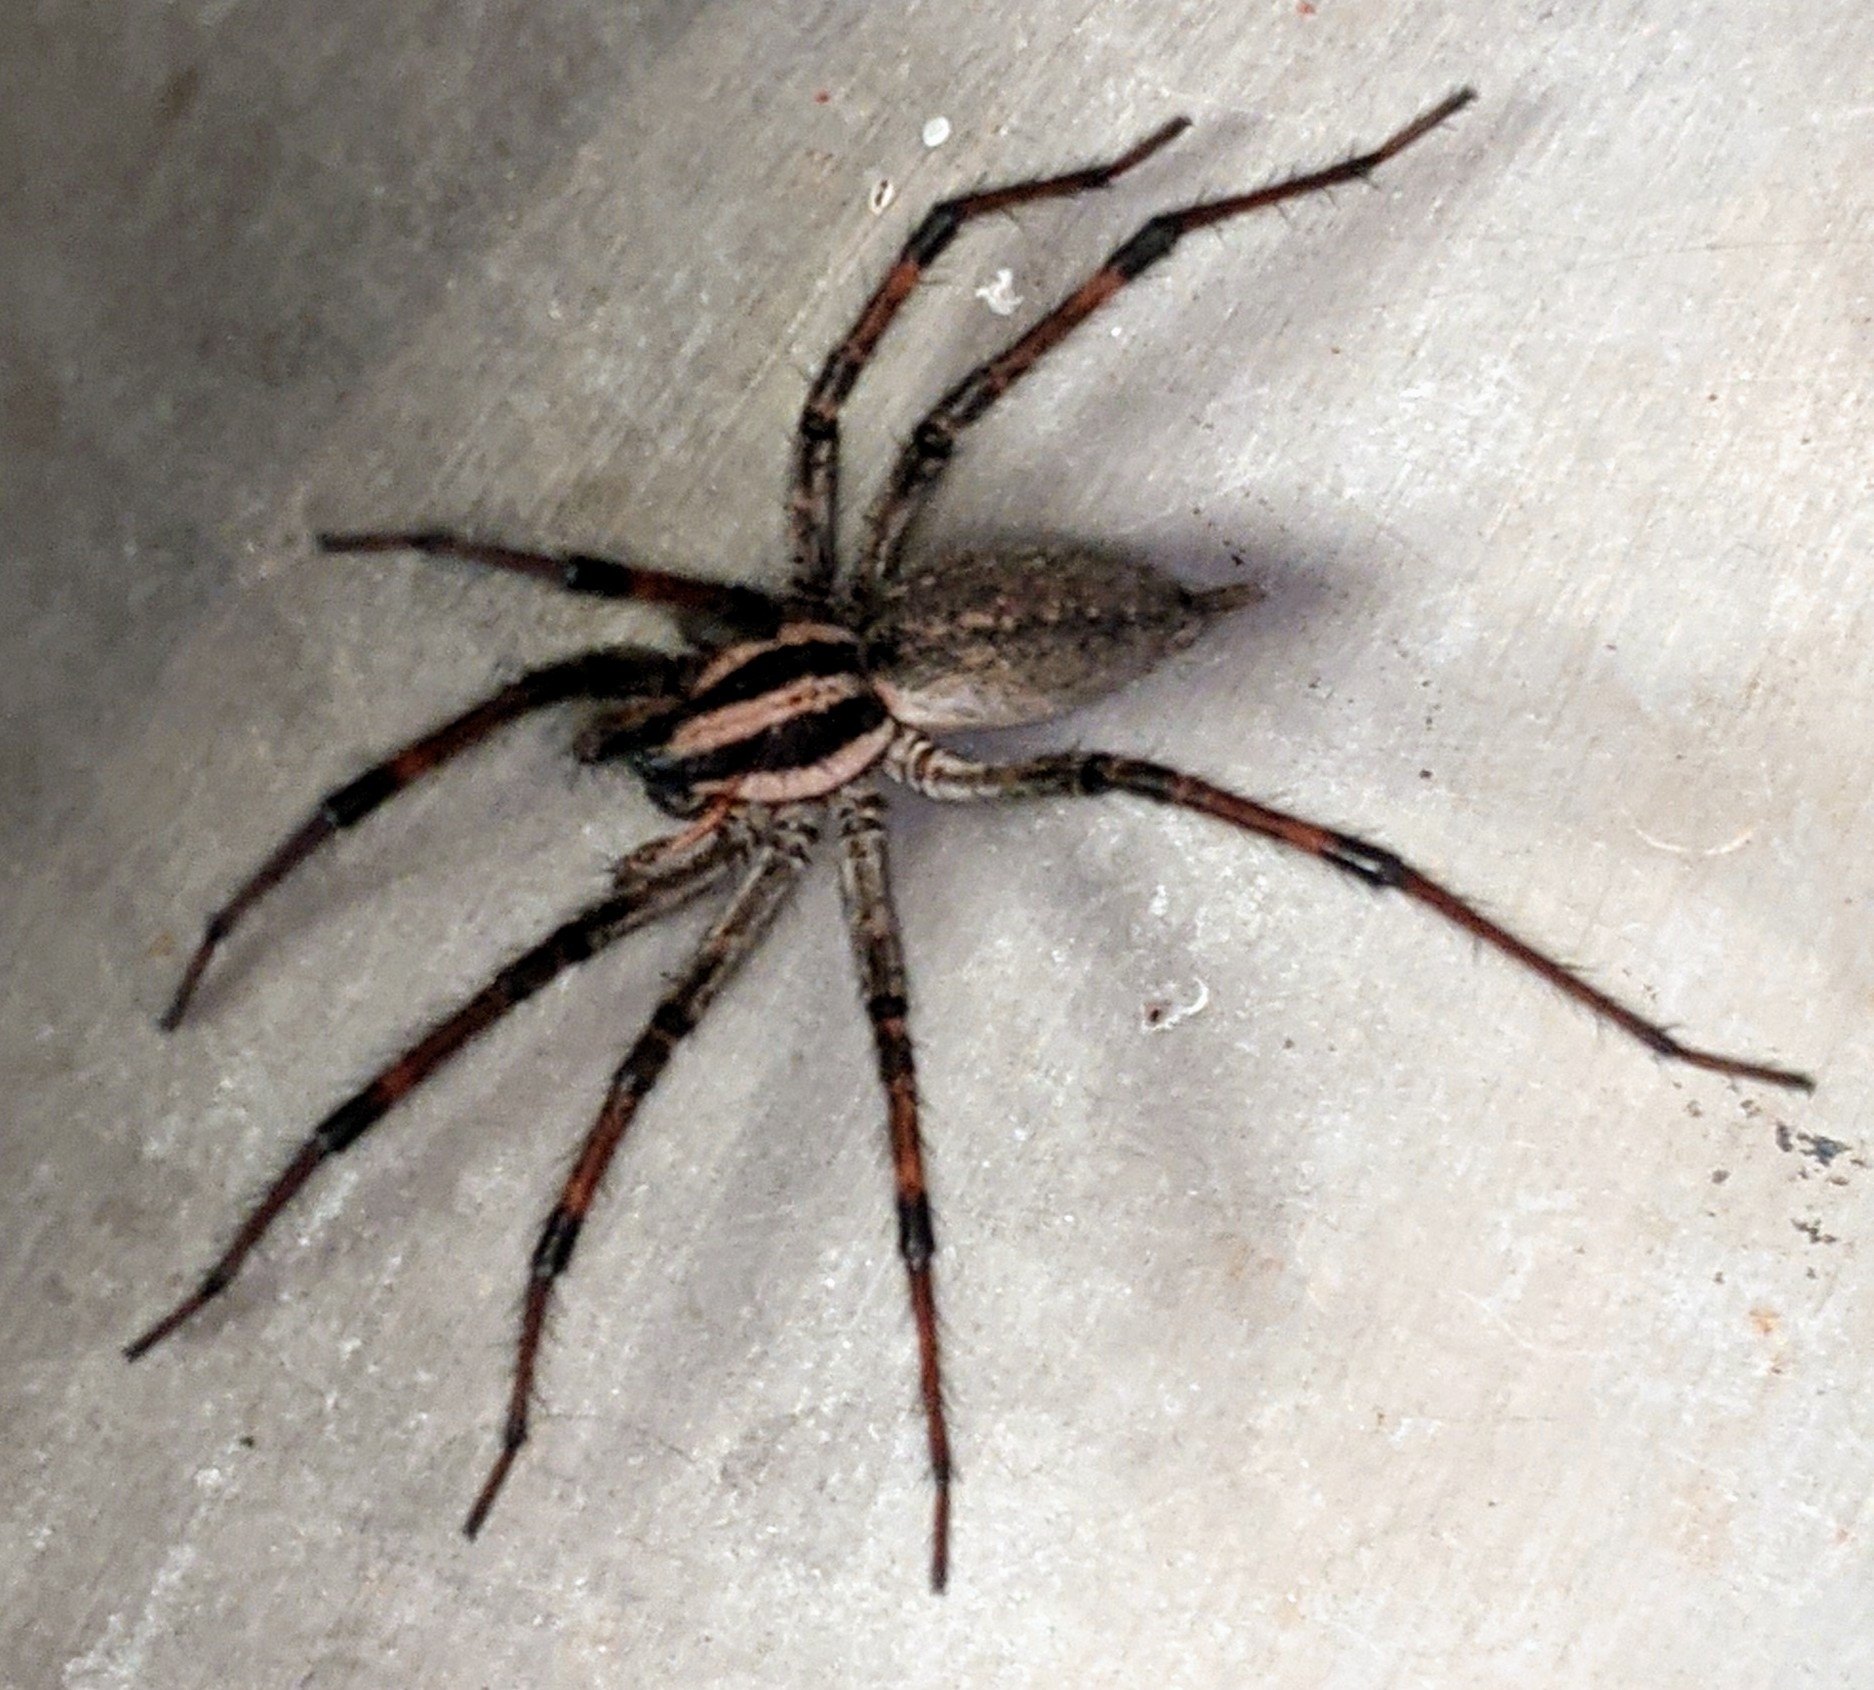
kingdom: Animalia
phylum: Arthropoda
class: Arachnida
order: Araneae
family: Agelenidae
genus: Agelenopsis
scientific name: Agelenopsis
